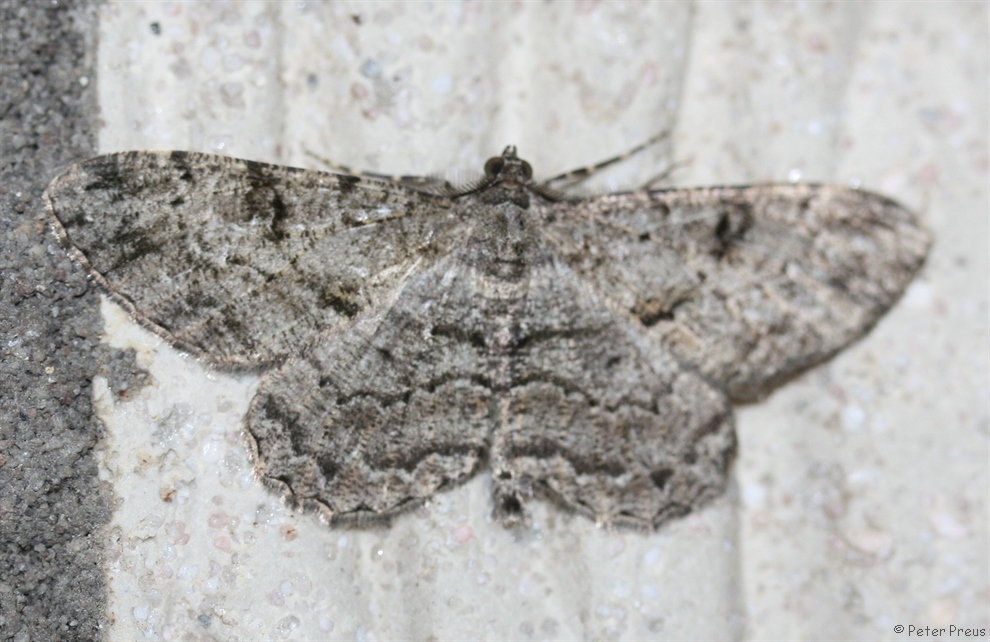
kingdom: Animalia
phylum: Arthropoda
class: Insecta
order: Lepidoptera
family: Geometridae
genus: Peribatodes
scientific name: Peribatodes rhomboidaria
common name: Willow beauty
